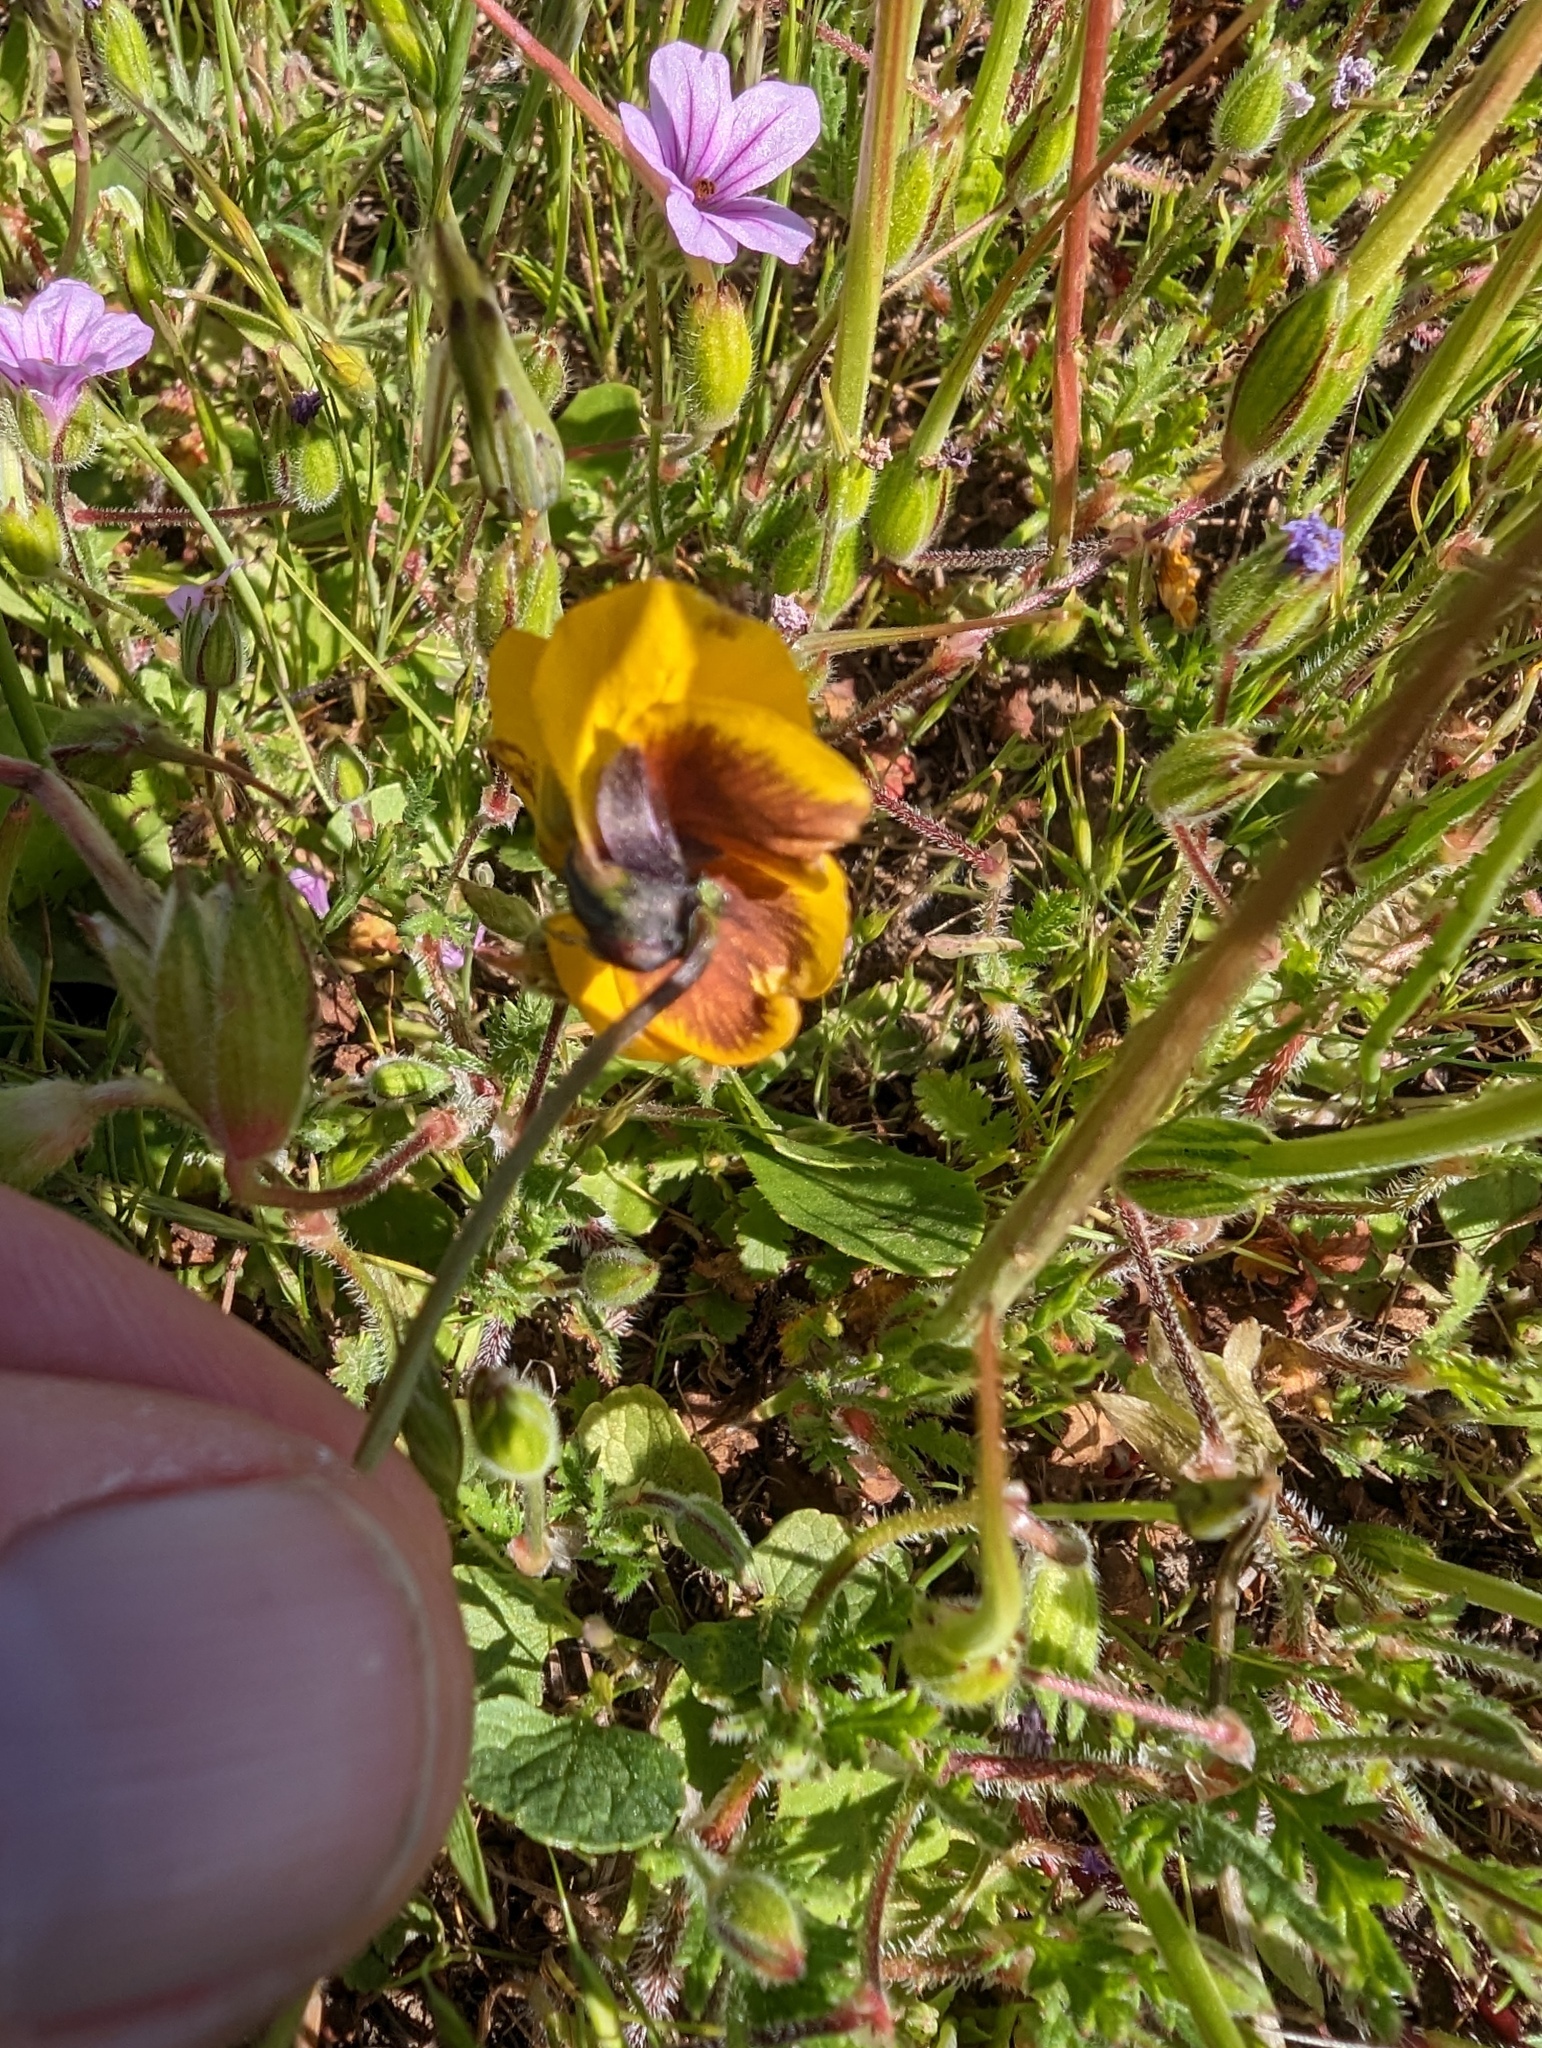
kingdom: Plantae
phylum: Tracheophyta
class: Magnoliopsida
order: Malpighiales
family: Violaceae
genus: Viola
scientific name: Viola pedunculata
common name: California golden violet
